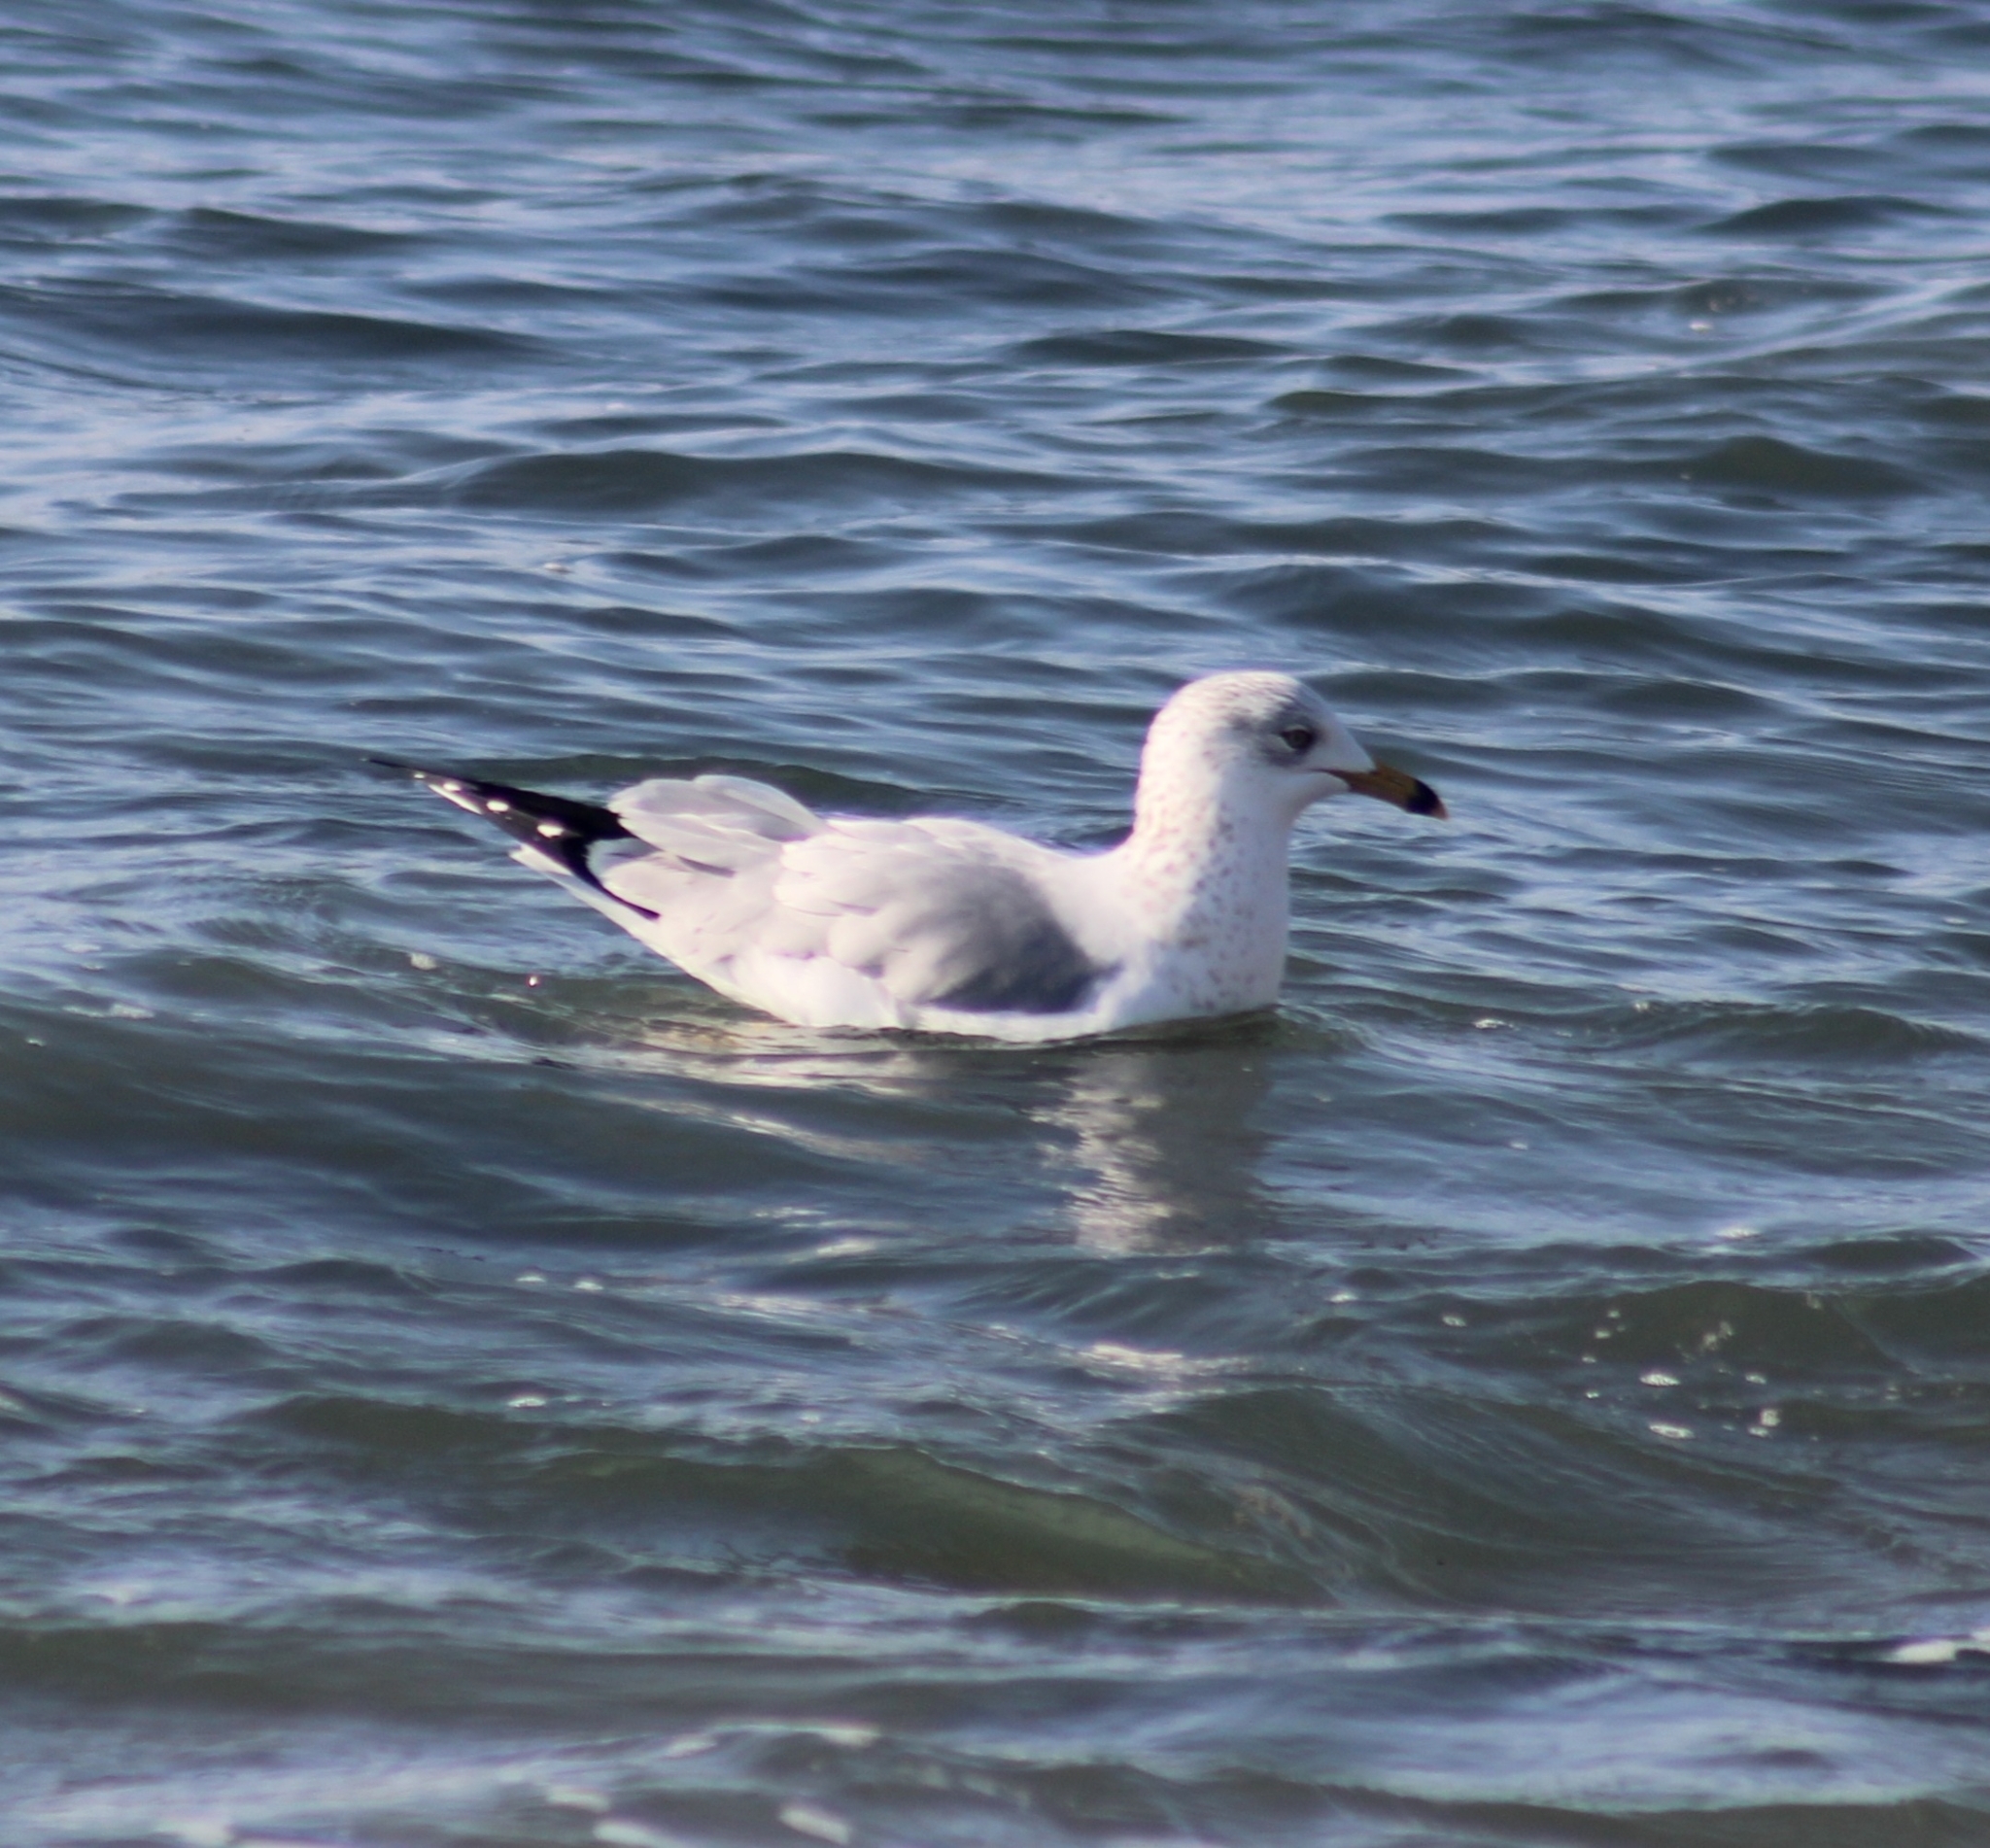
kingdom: Animalia
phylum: Chordata
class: Aves
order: Charadriiformes
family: Laridae
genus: Larus
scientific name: Larus delawarensis
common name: Ring-billed gull
